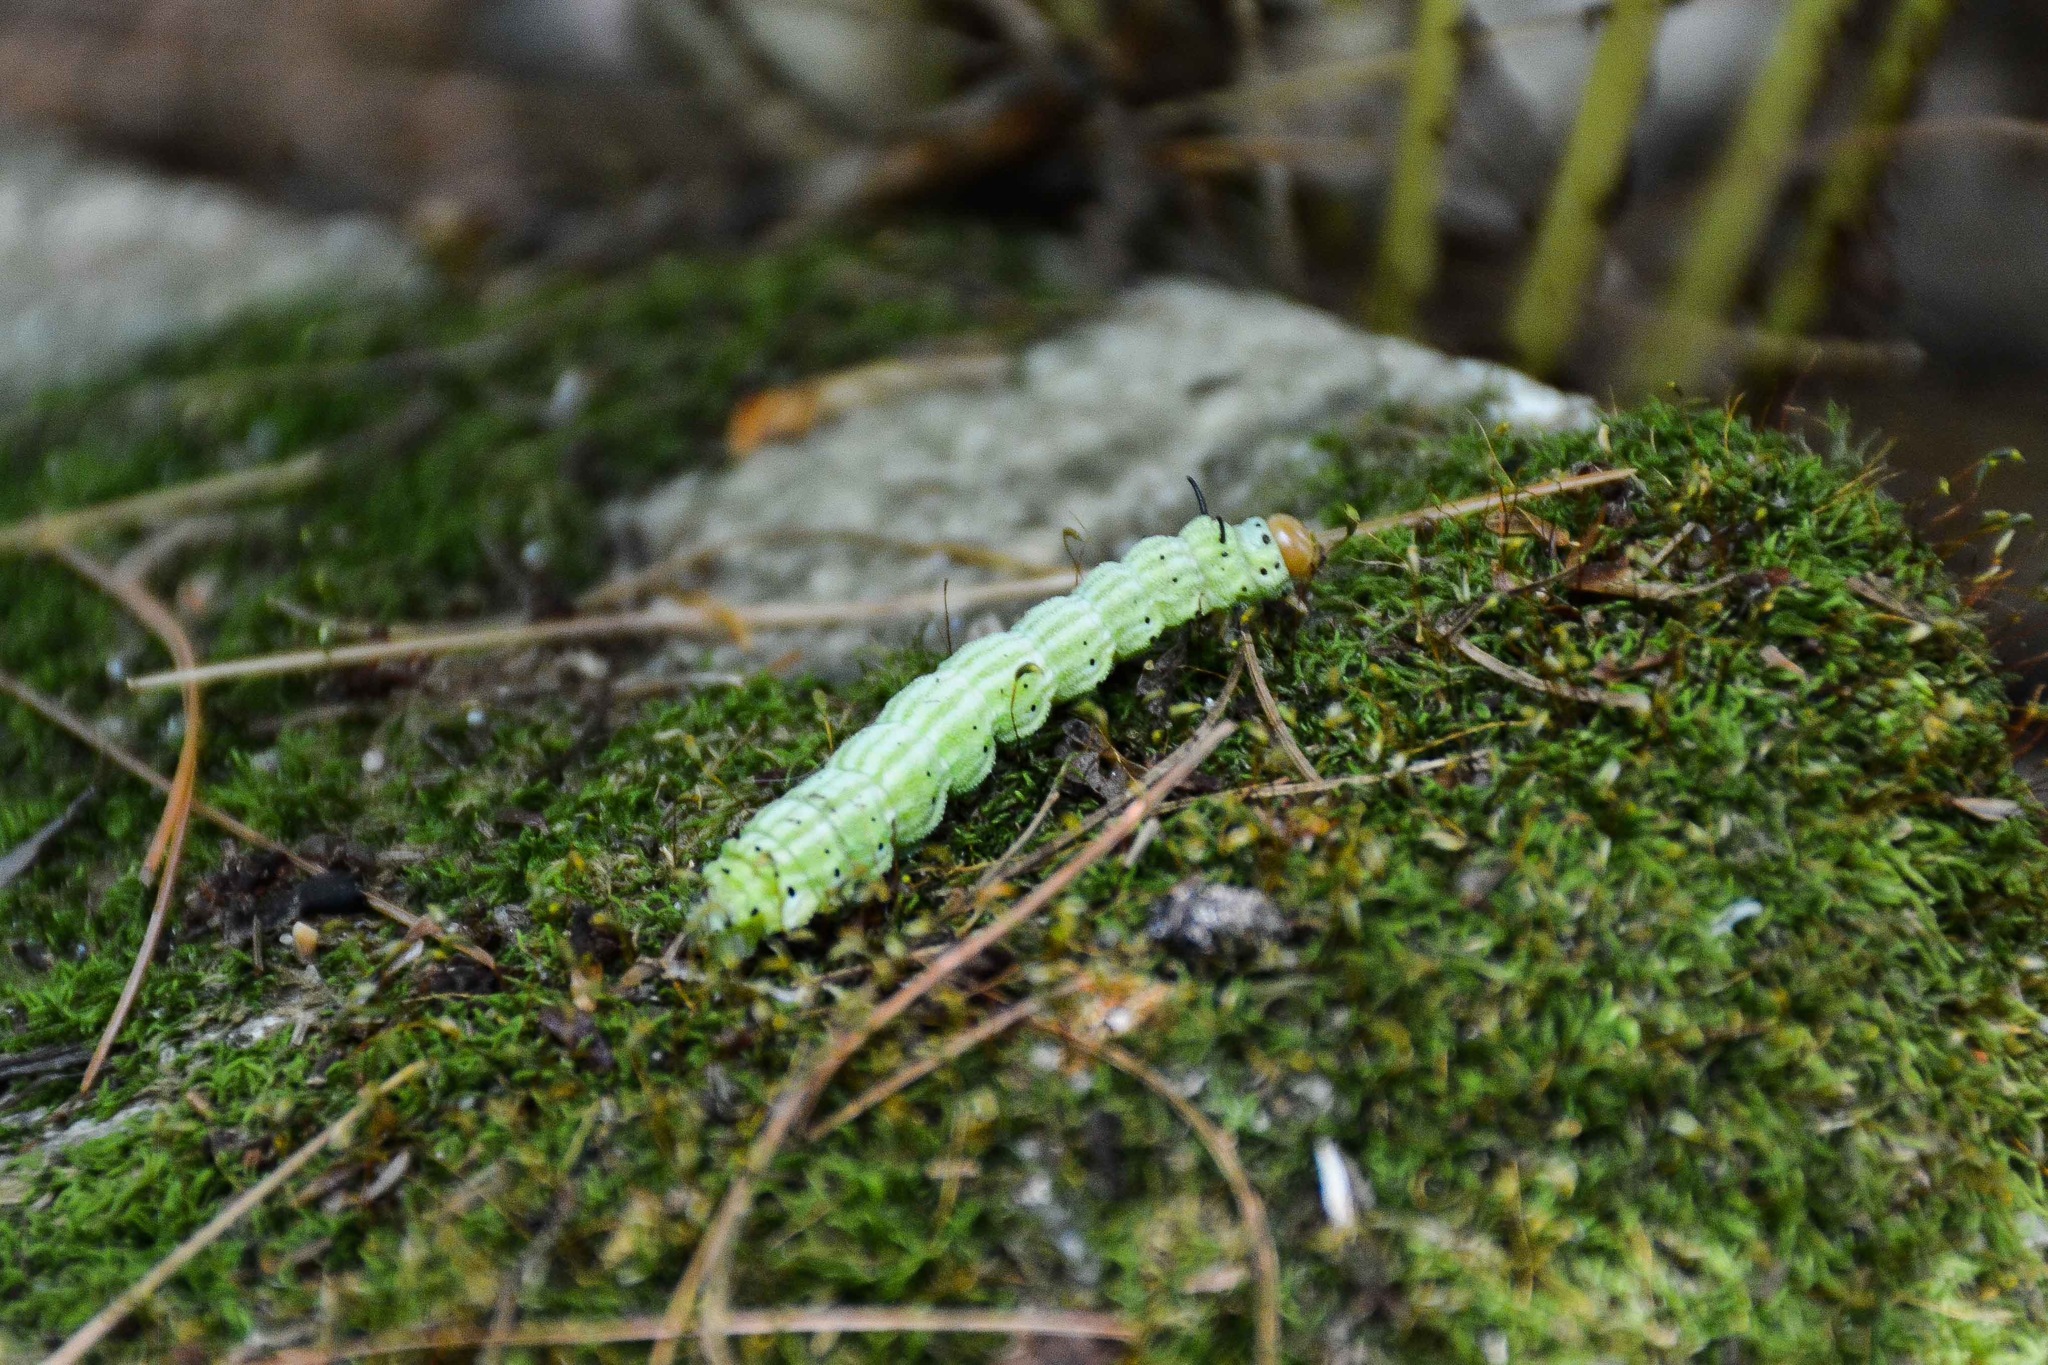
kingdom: Animalia
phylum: Arthropoda
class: Insecta
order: Lepidoptera
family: Saturniidae
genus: Dryocampa
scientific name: Dryocampa rubicunda
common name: Rosy maple moth
